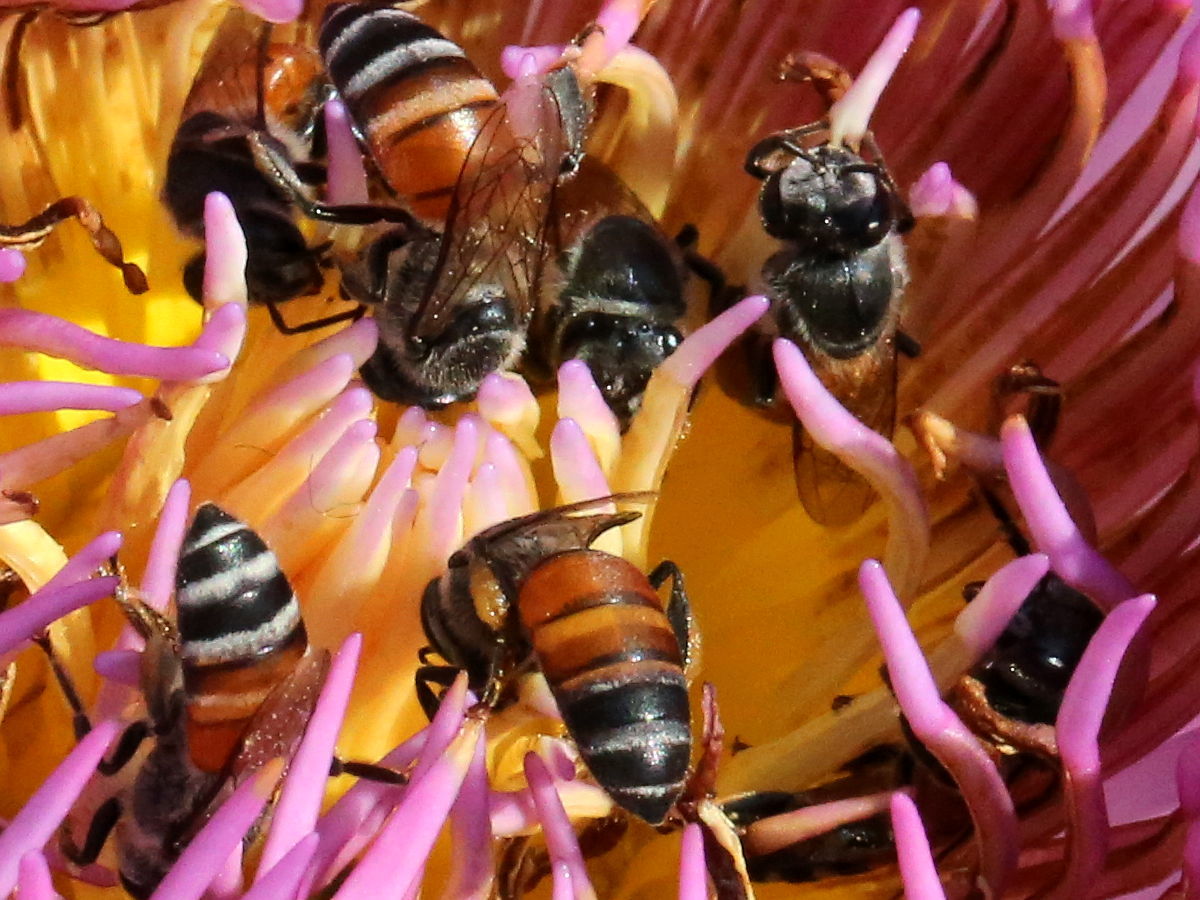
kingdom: Animalia
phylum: Arthropoda
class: Insecta
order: Hymenoptera
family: Apidae
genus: Apis
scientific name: Apis florea
